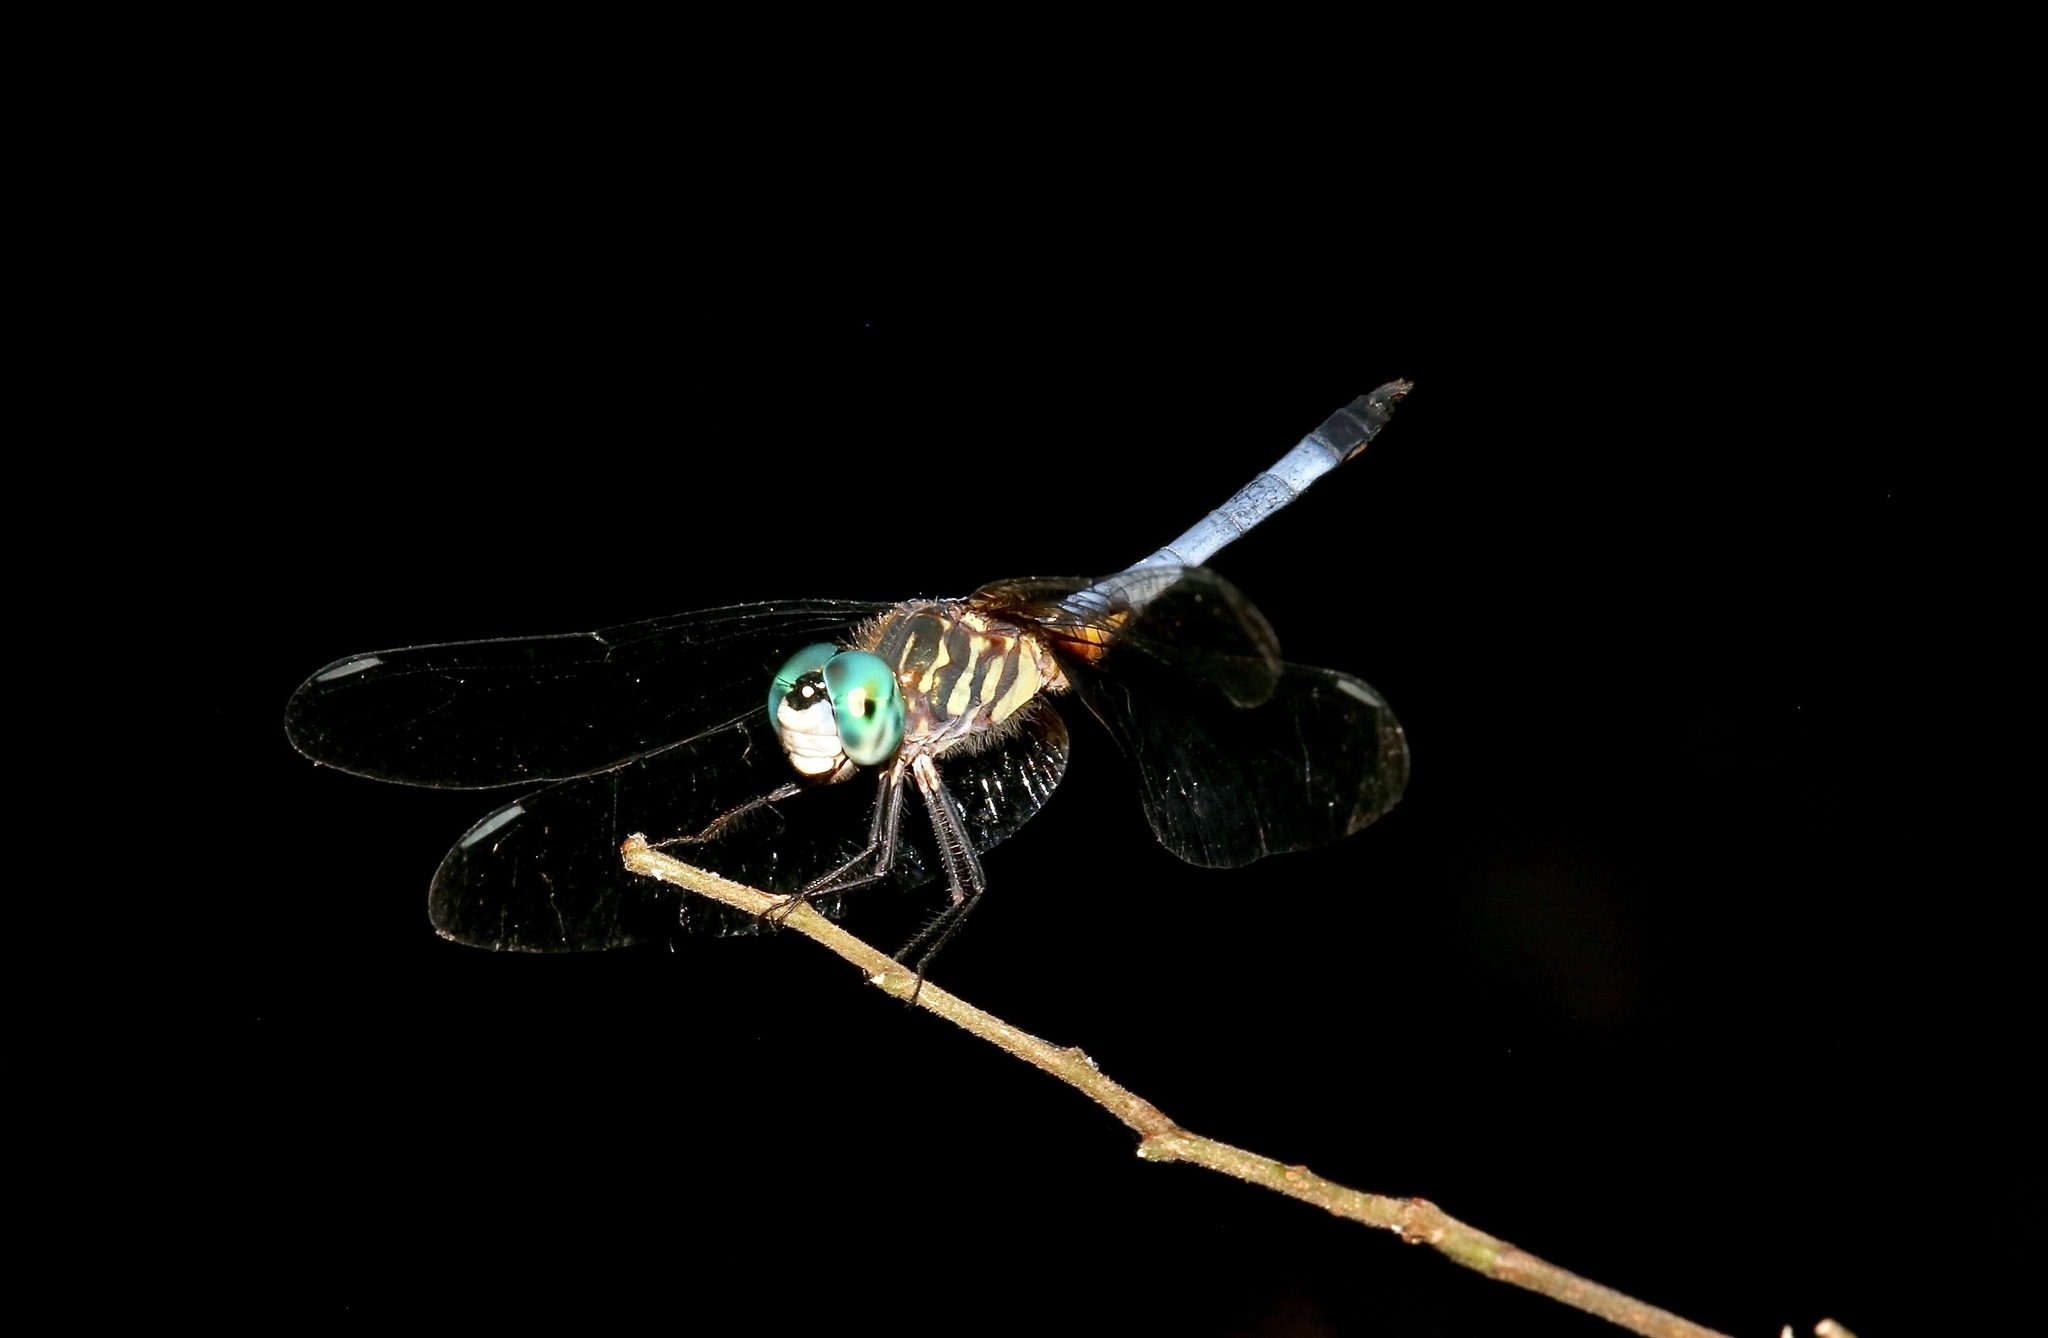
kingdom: Animalia
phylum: Arthropoda
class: Insecta
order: Odonata
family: Libellulidae
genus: Pachydiplax
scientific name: Pachydiplax longipennis
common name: Blue dasher
